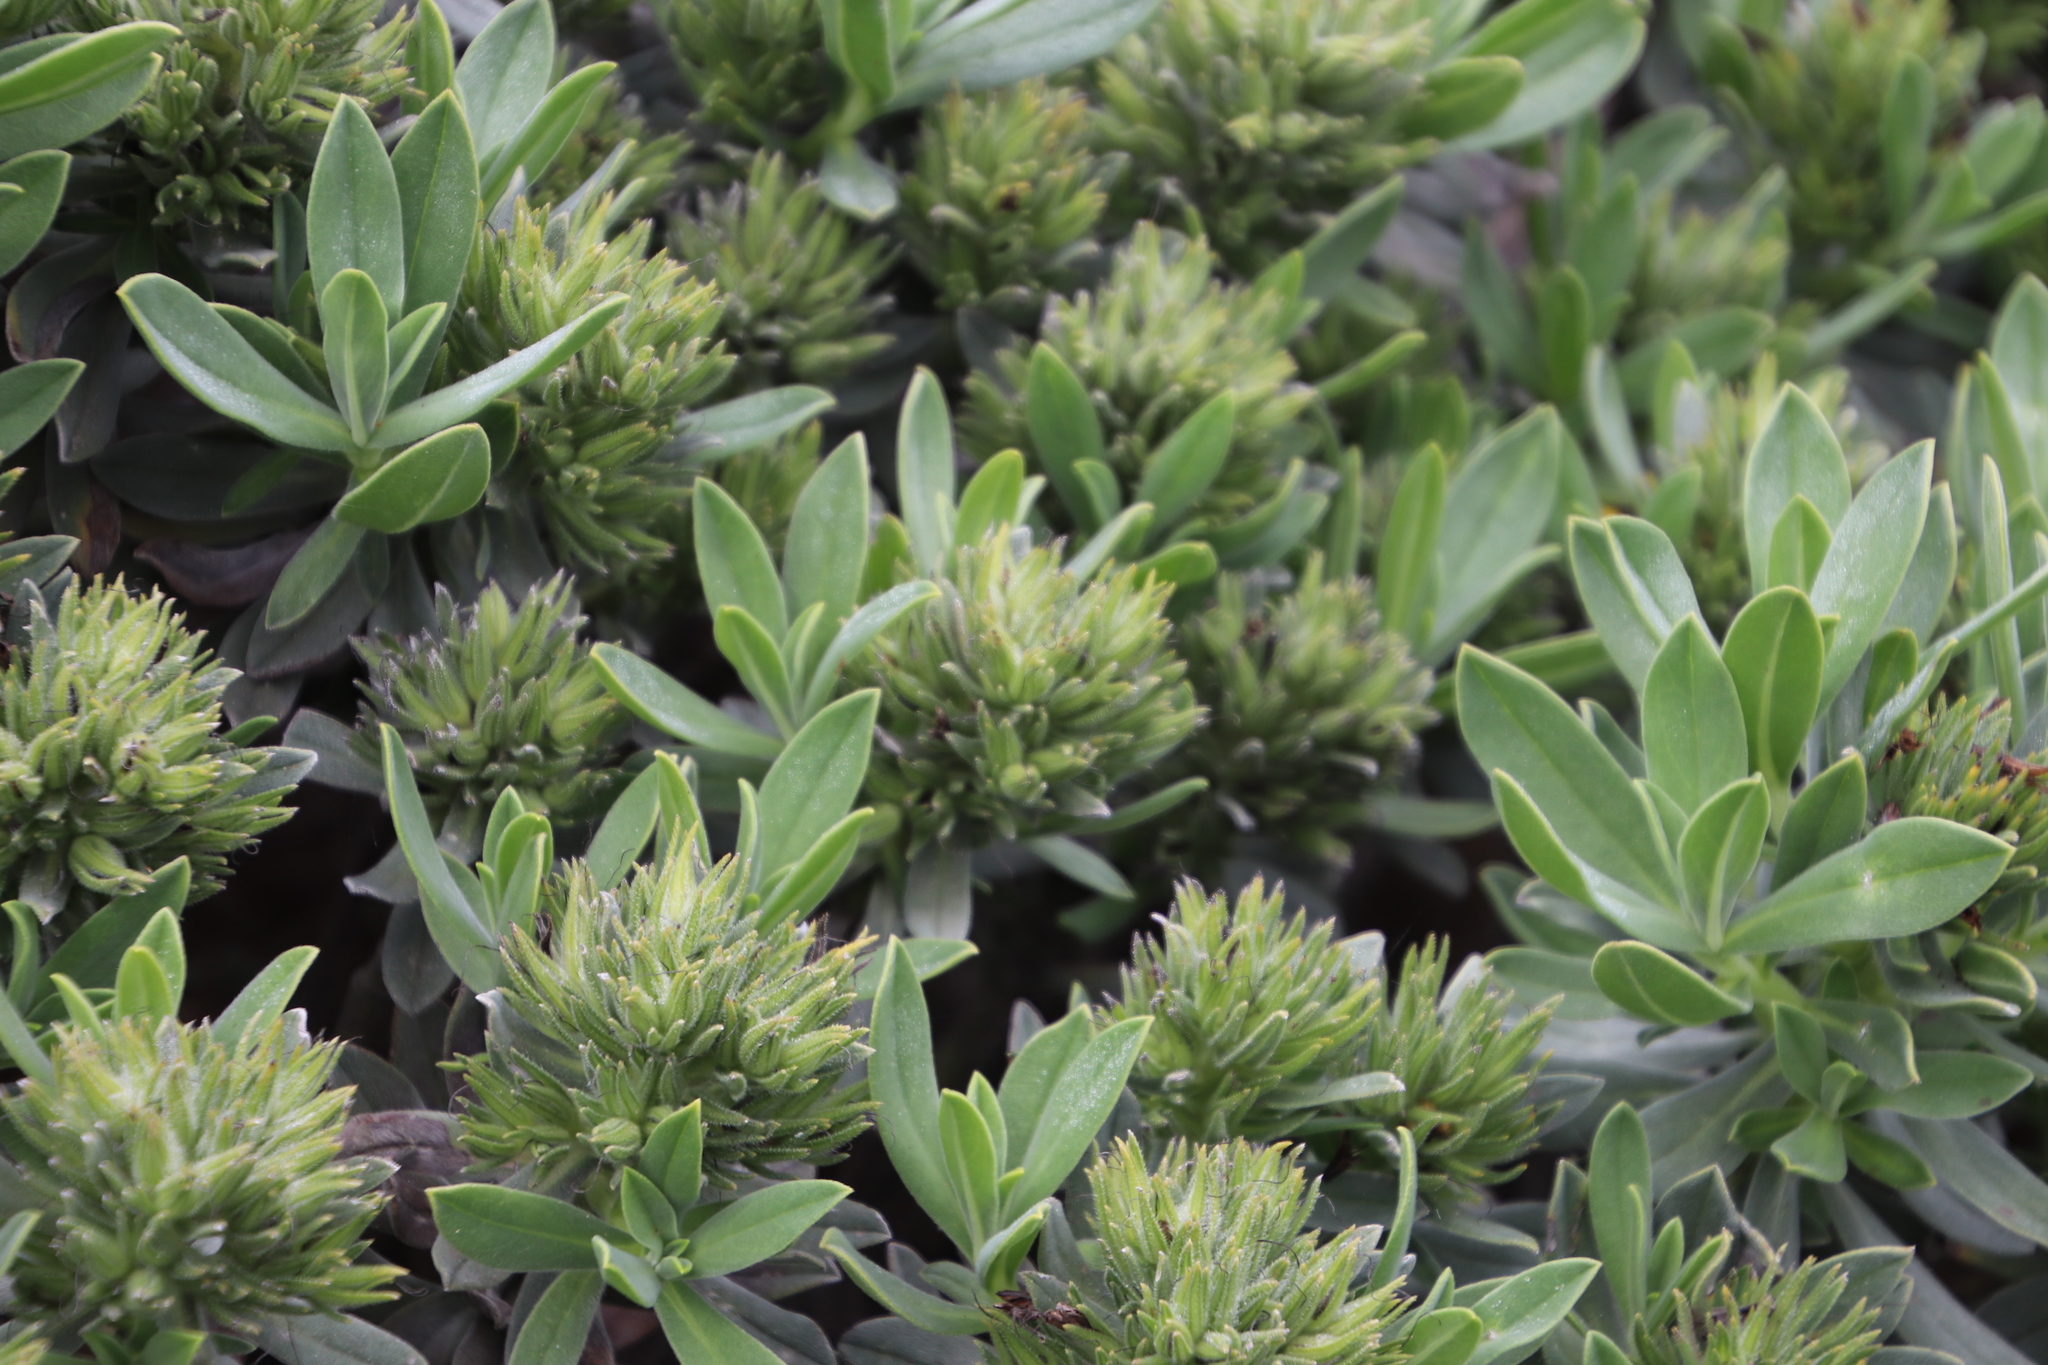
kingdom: Plantae
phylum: Tracheophyta
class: Magnoliopsida
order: Boraginales
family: Boraginaceae
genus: Lobostemon
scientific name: Lobostemon montanus
